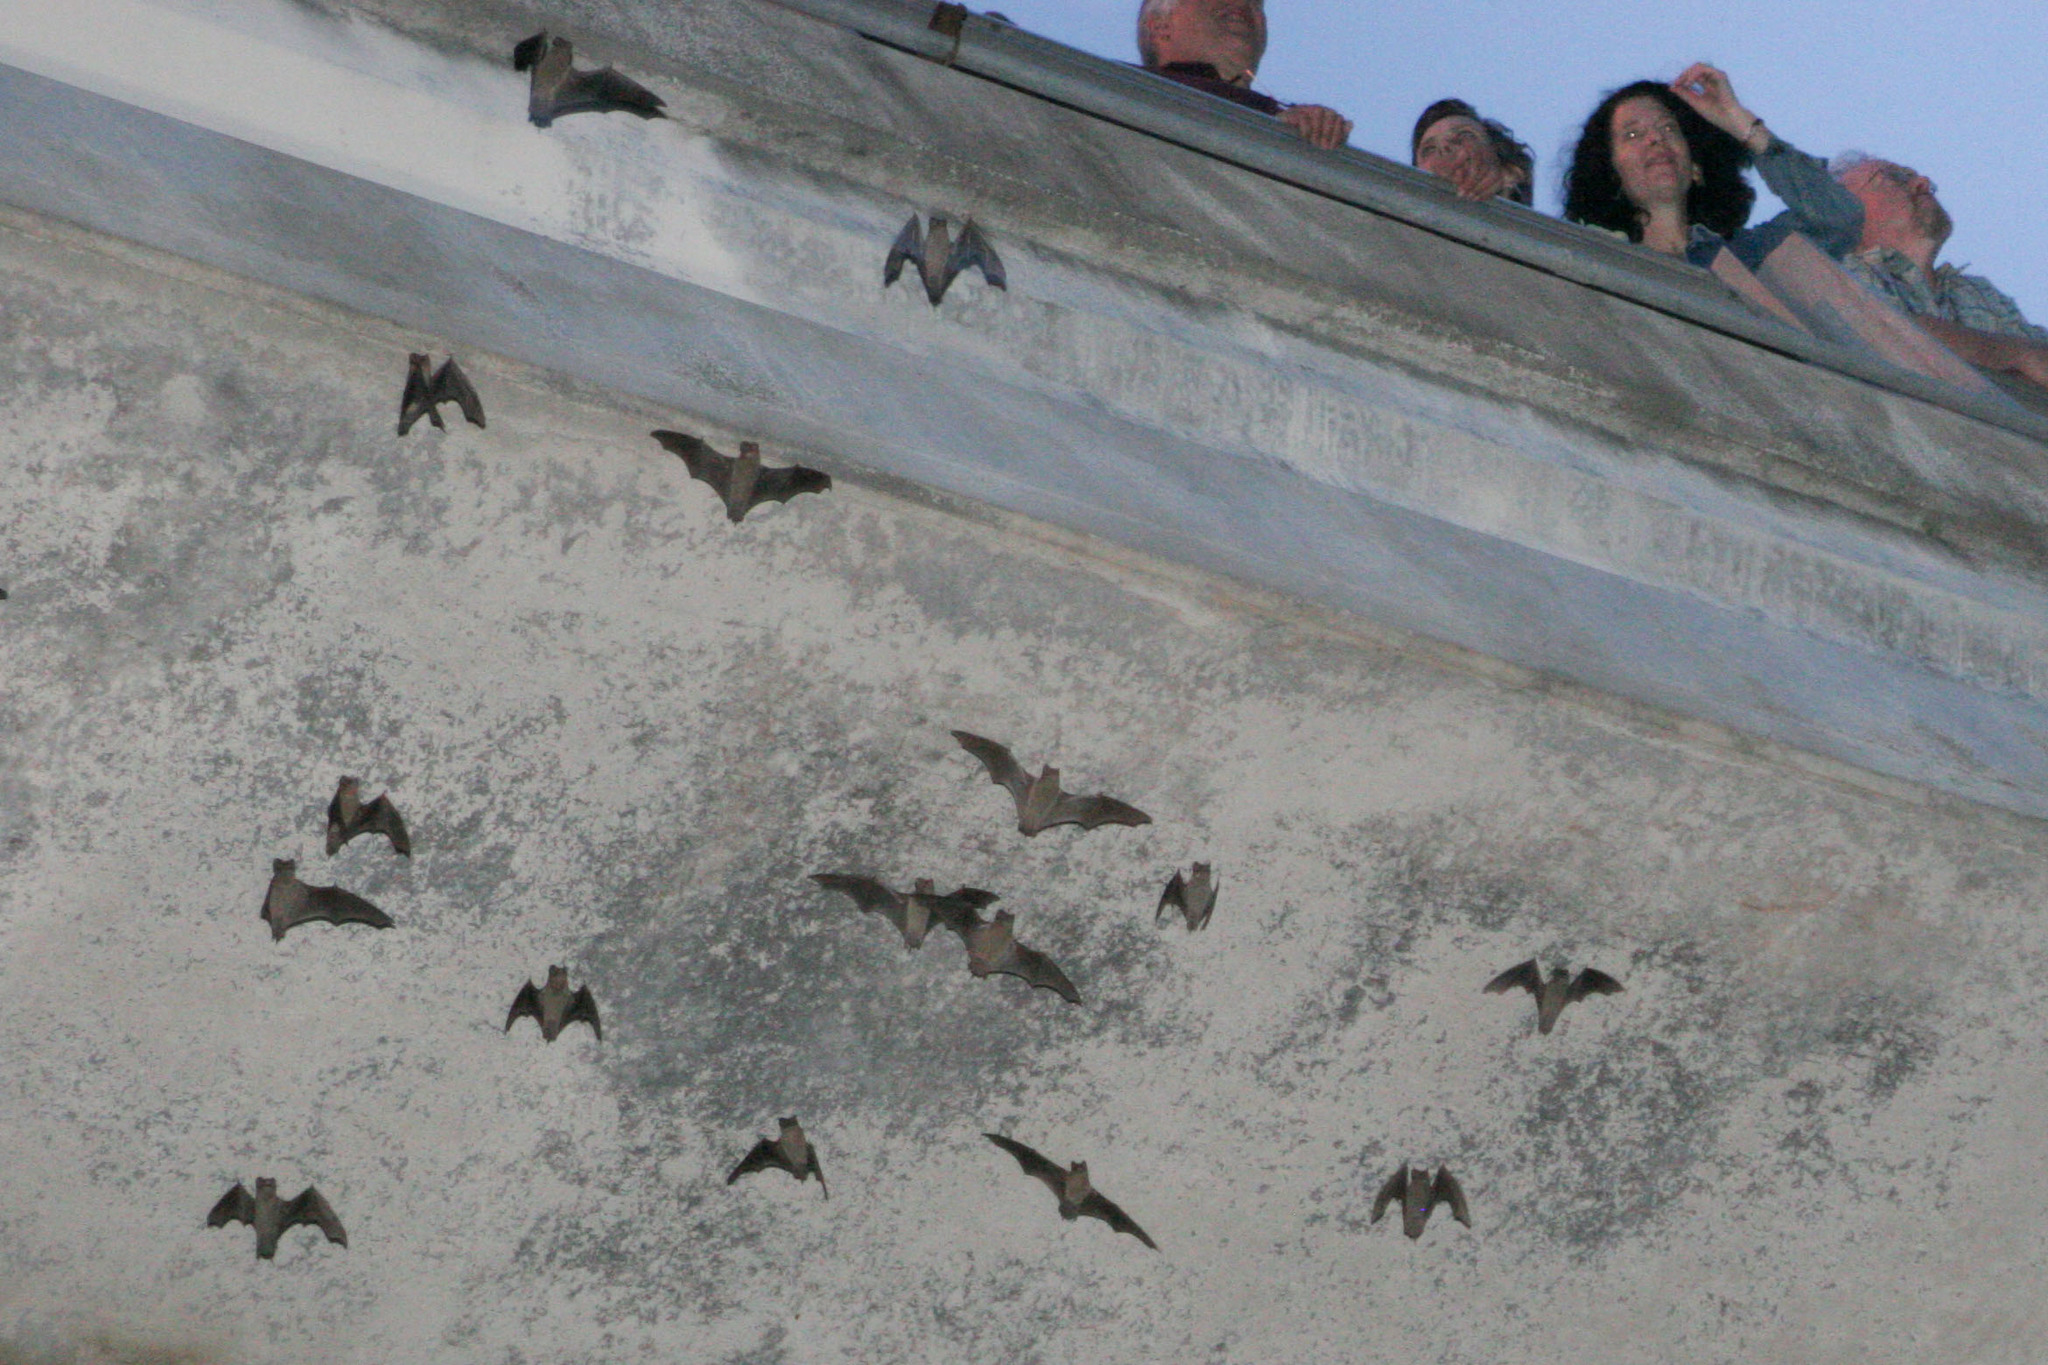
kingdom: Animalia
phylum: Chordata
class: Mammalia
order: Chiroptera
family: Molossidae
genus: Tadarida
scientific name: Tadarida brasiliensis
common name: Mexican free-tailed bat
